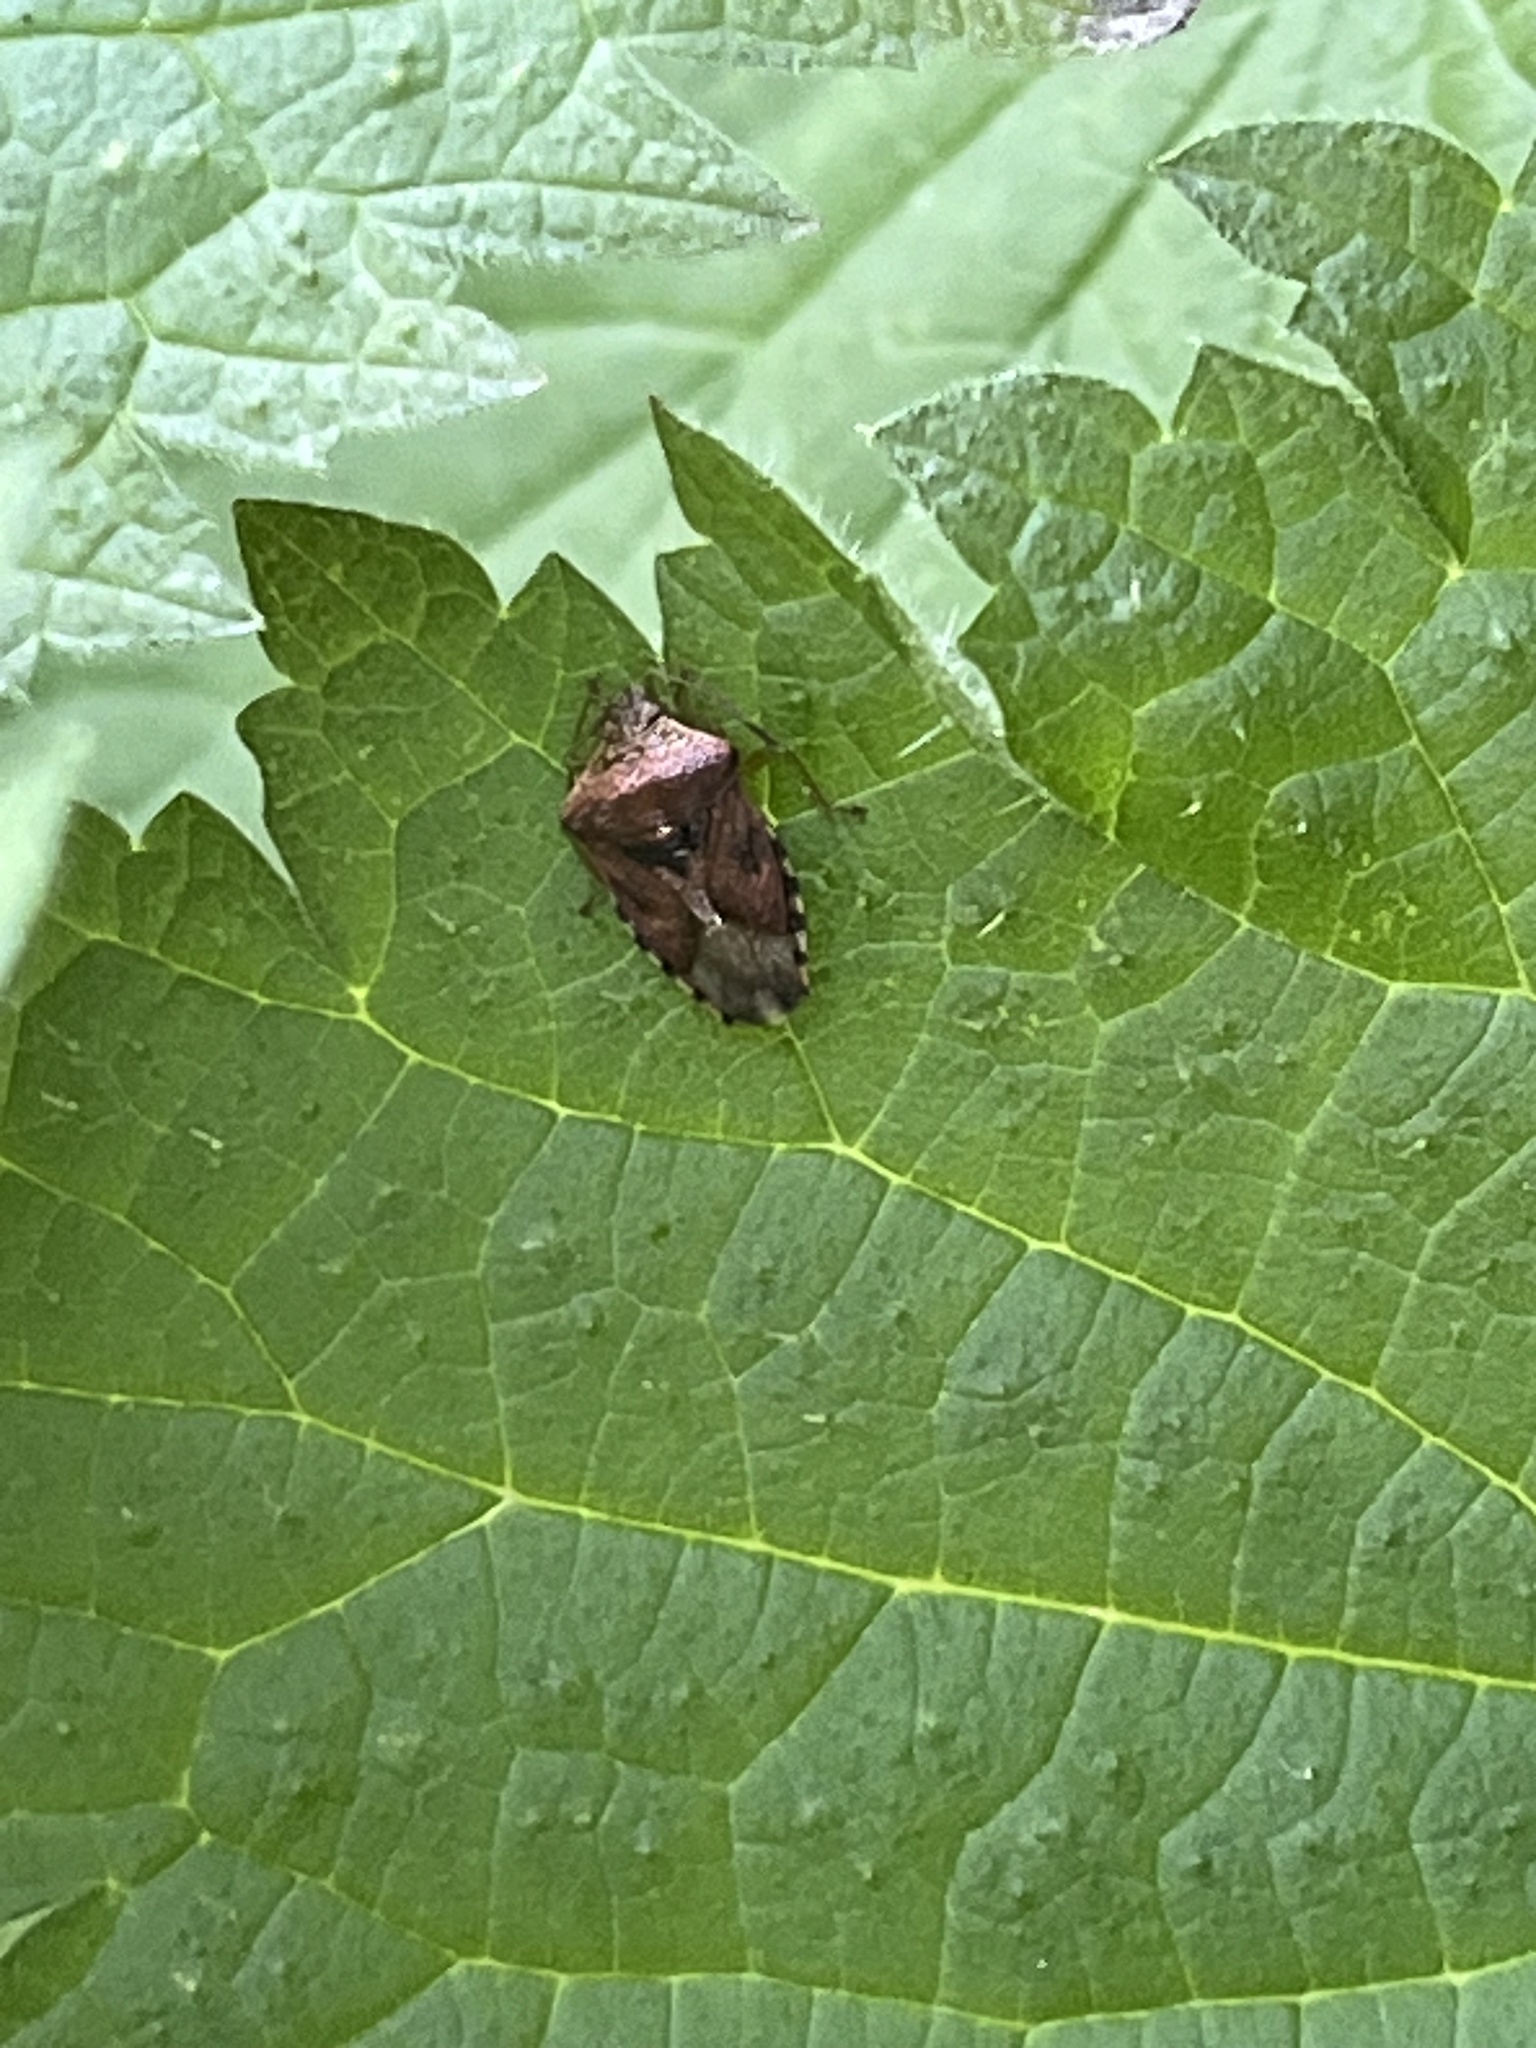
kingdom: Animalia
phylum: Arthropoda
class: Insecta
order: Hemiptera
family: Acanthosomatidae
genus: Elasmucha
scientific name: Elasmucha grisea
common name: Parent bug
